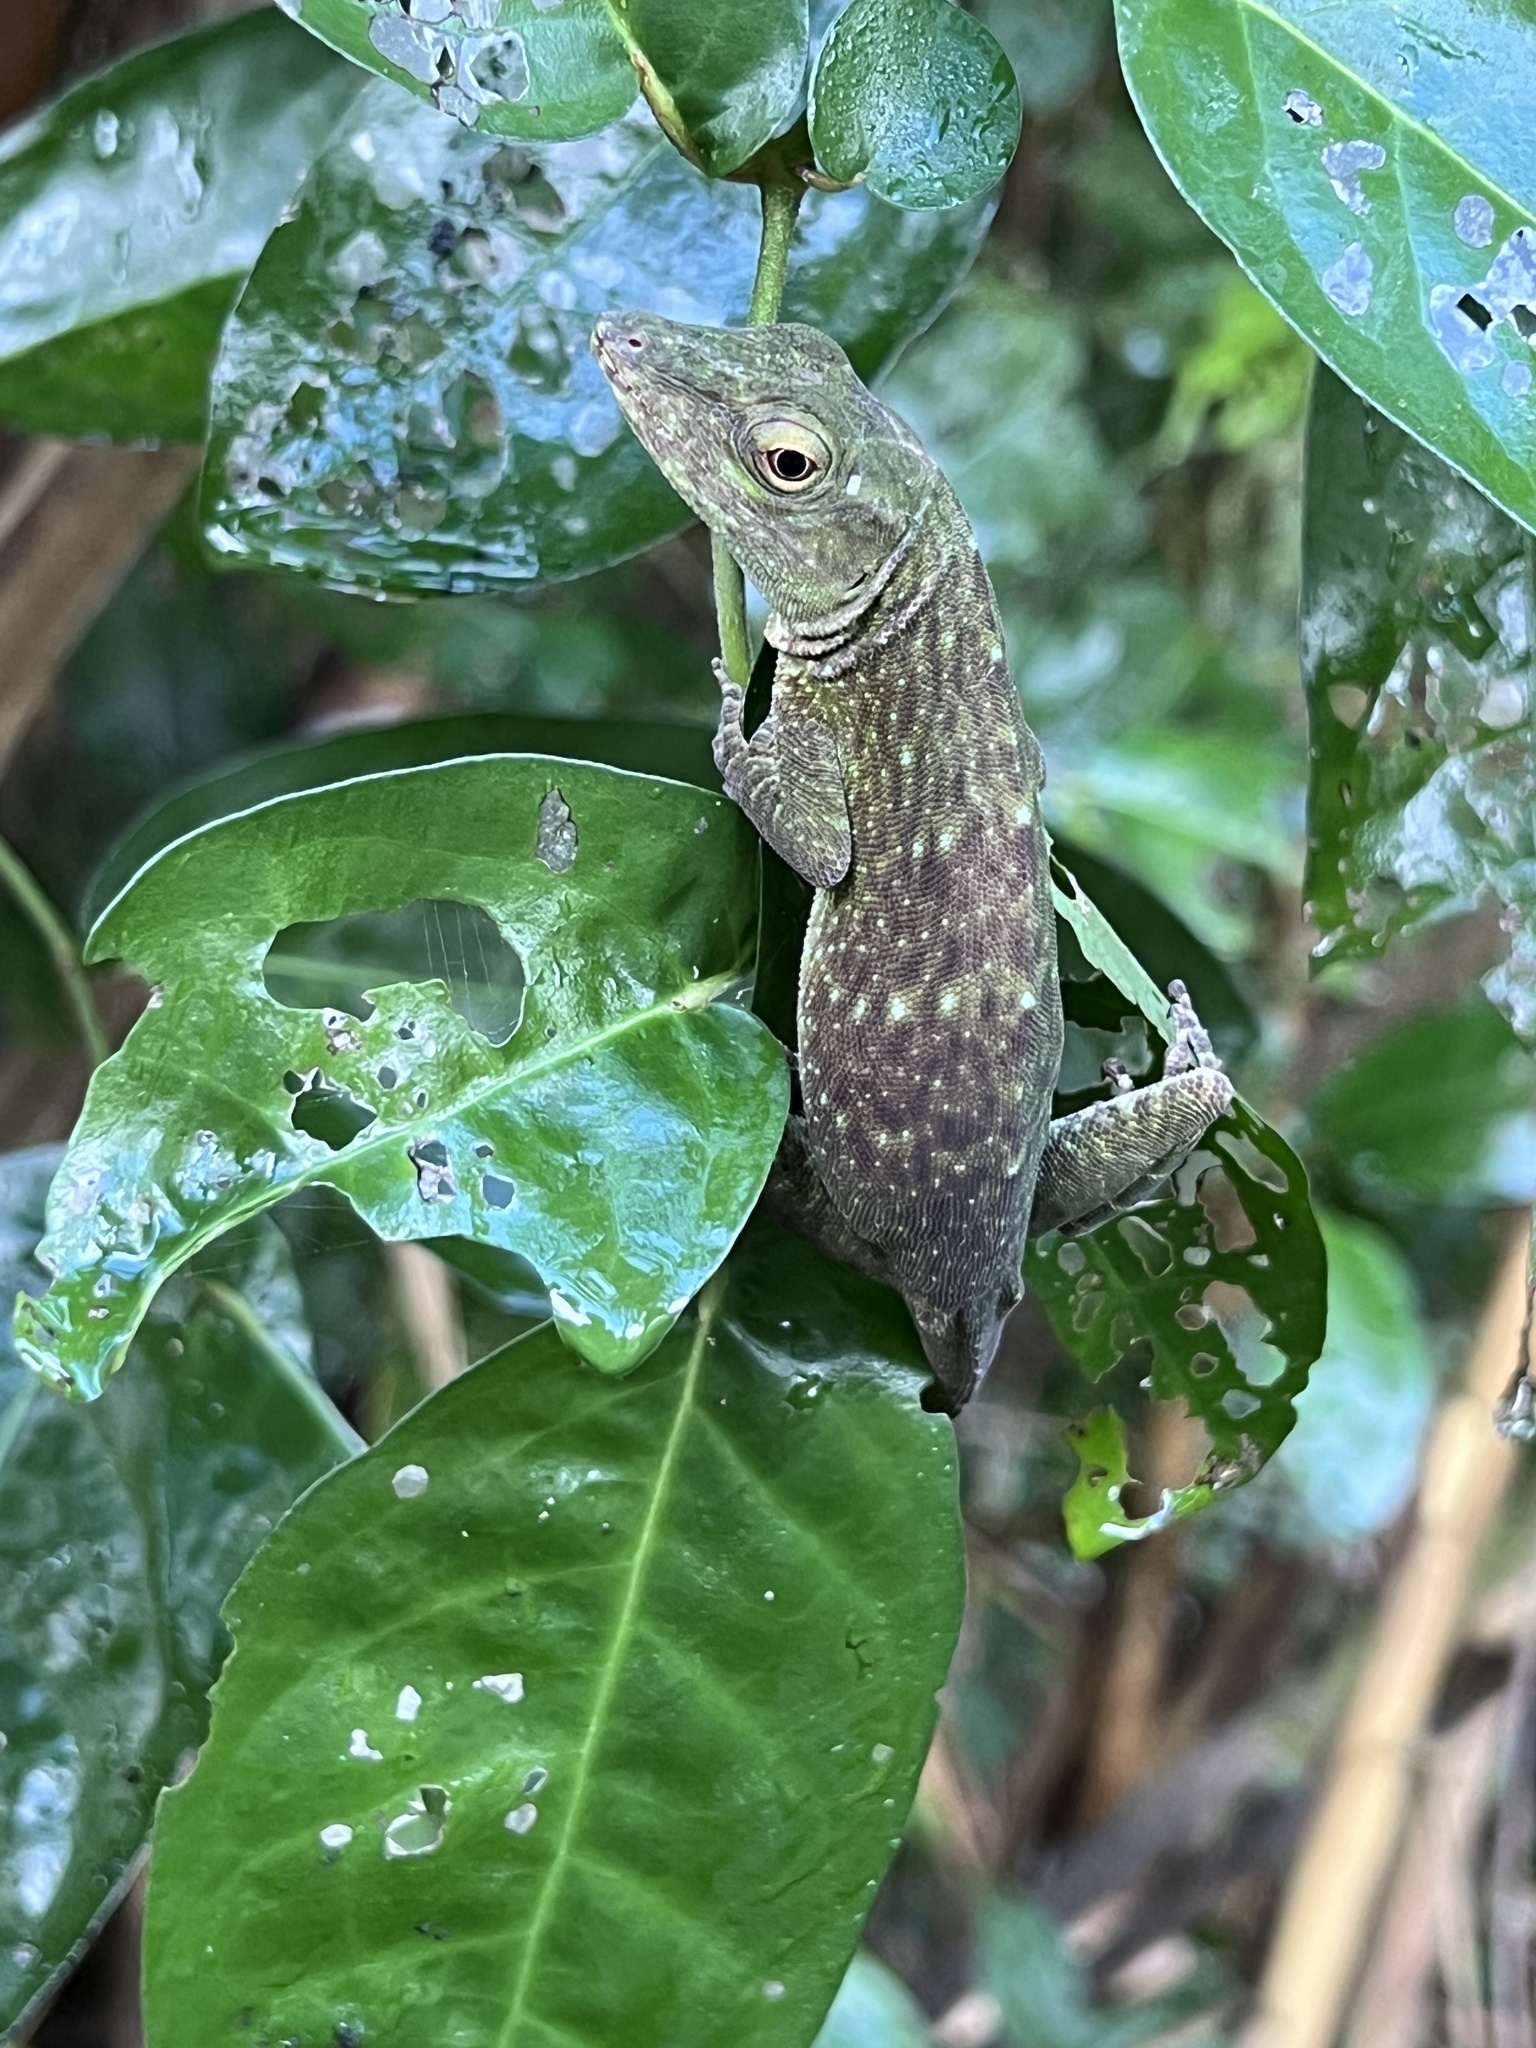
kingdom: Animalia
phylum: Chordata
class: Squamata
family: Dactyloidae
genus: Anolis
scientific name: Anolis biporcatus
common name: Giant green anole
